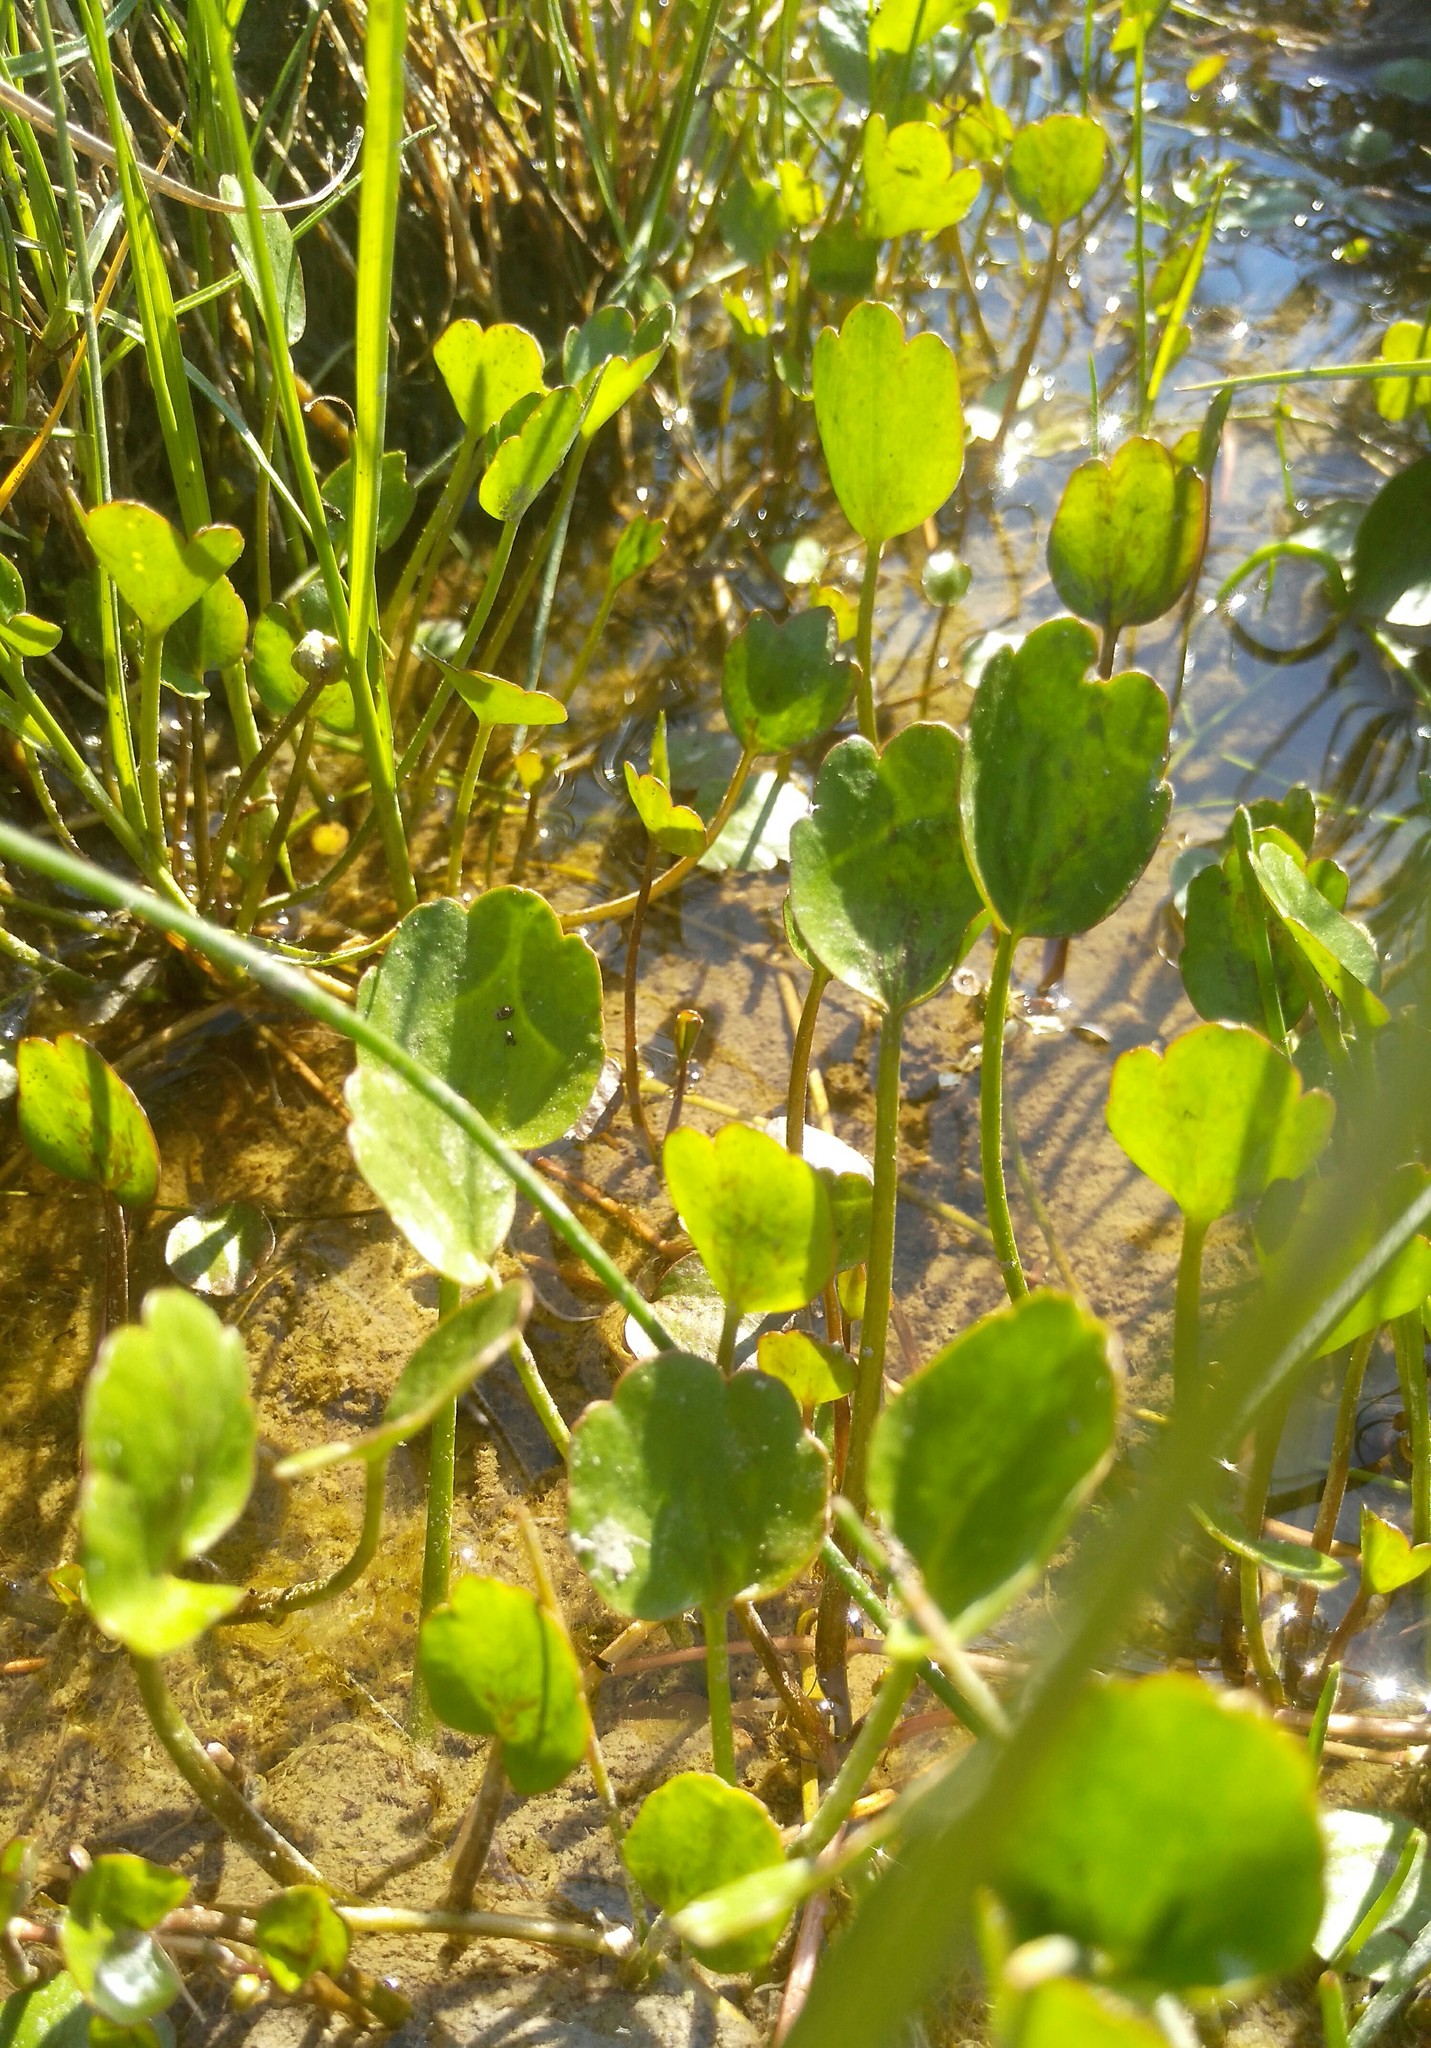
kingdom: Plantae
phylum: Tracheophyta
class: Magnoliopsida
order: Ranunculales
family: Ranunculaceae
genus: Halerpestes
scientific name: Halerpestes sarmentosus
